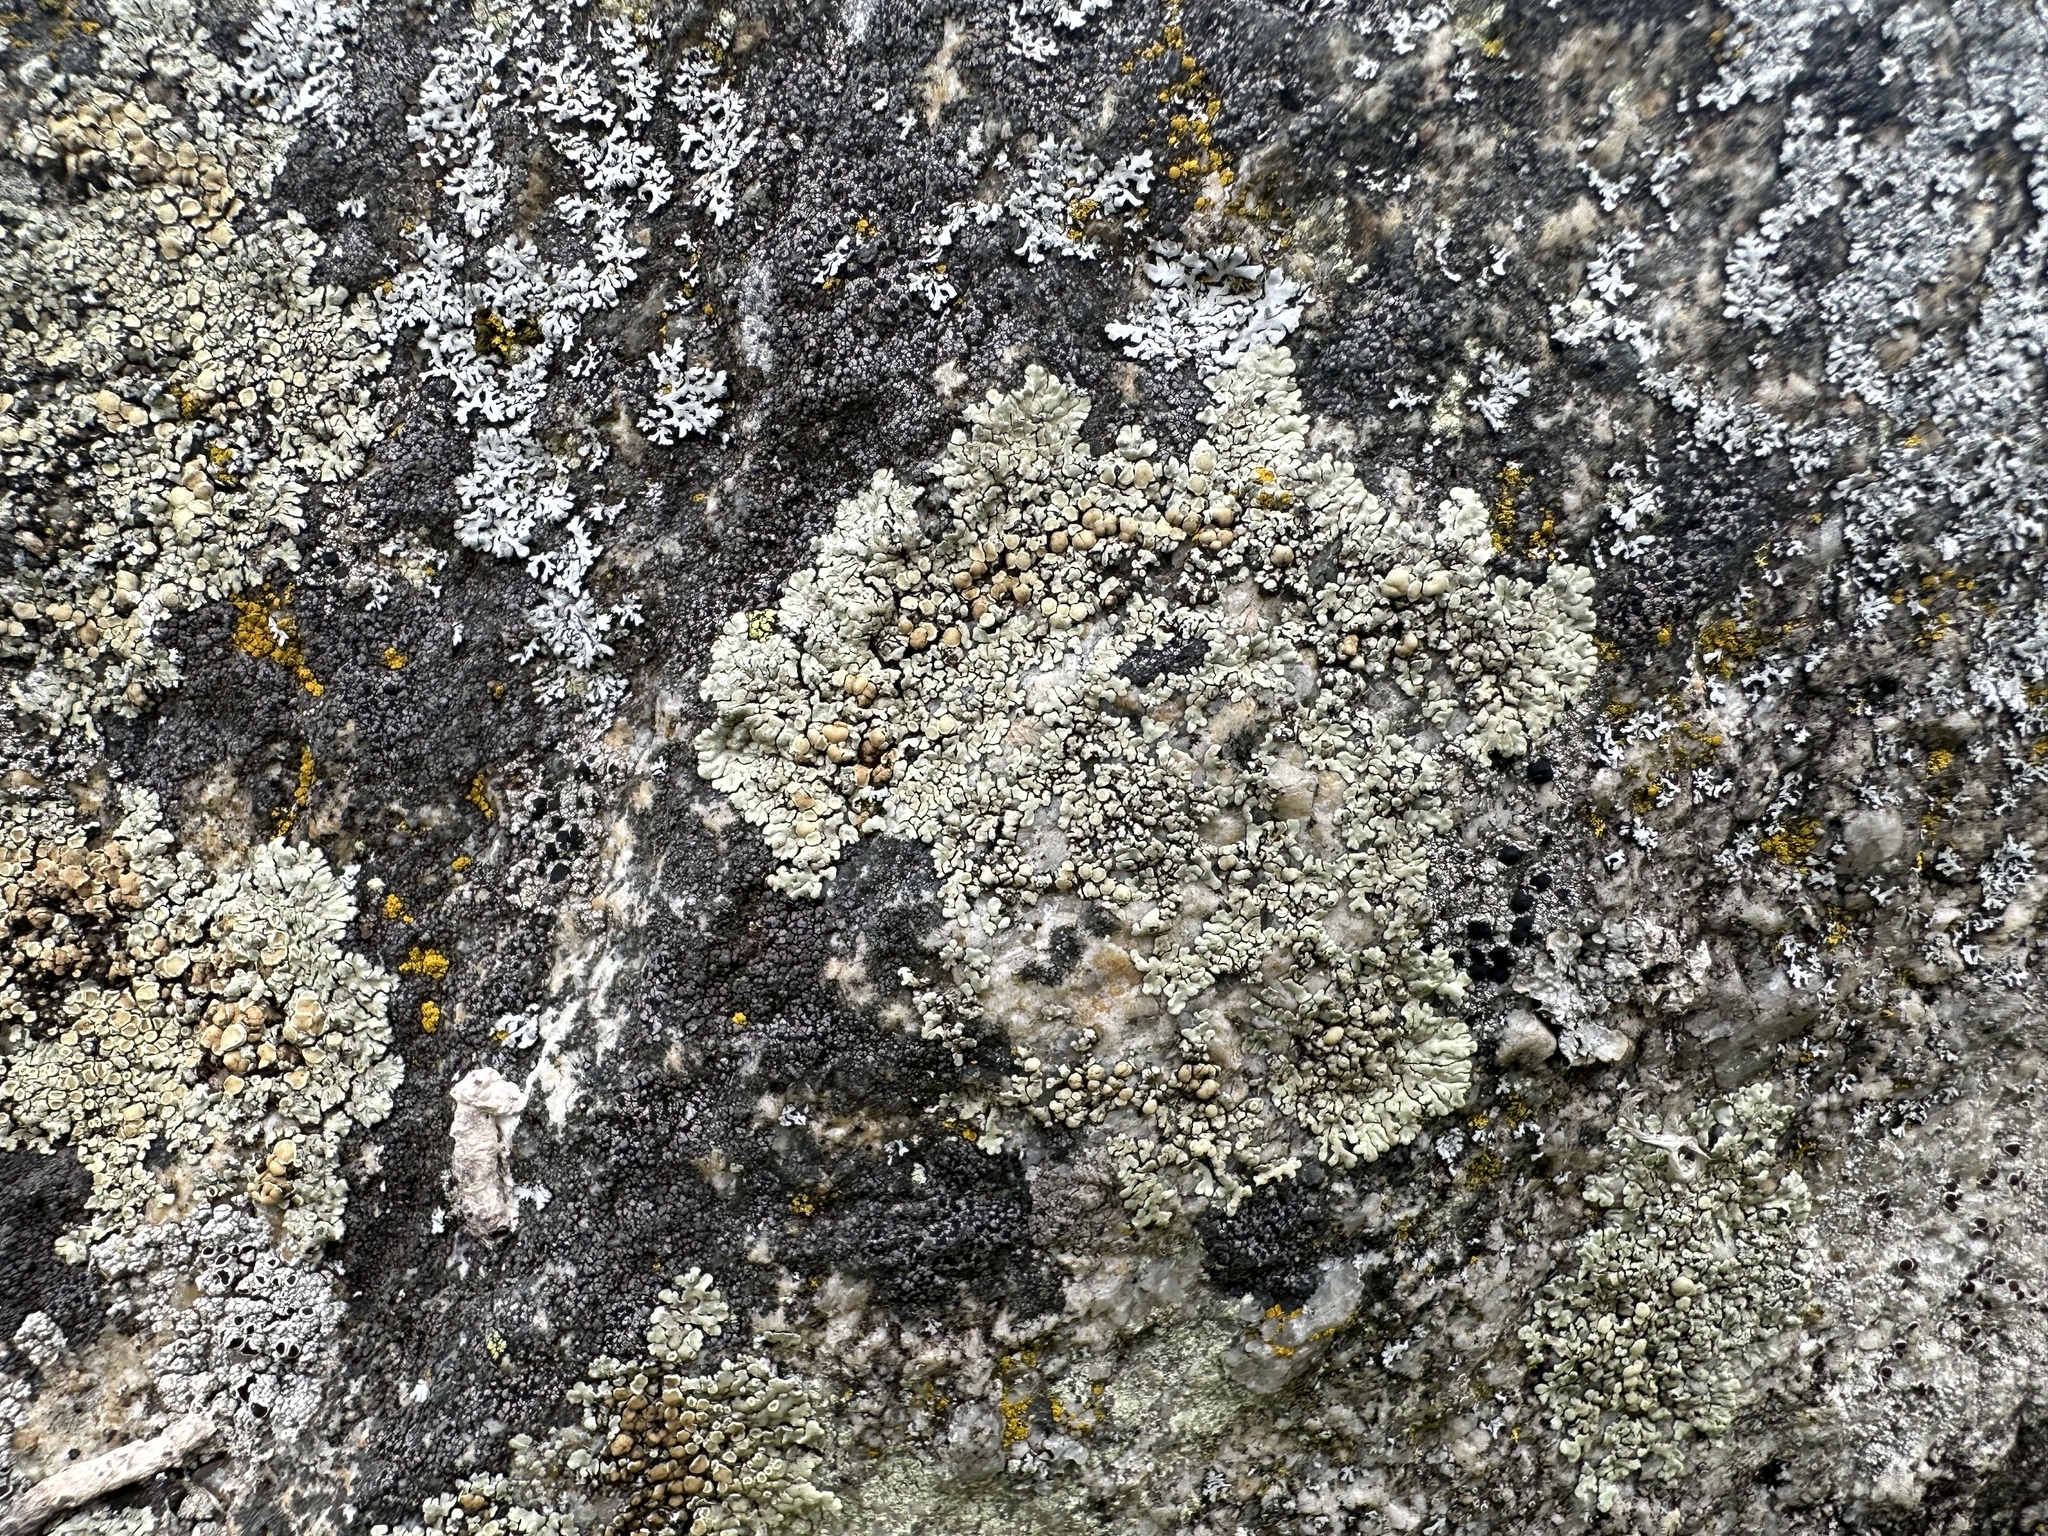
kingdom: Fungi
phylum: Ascomycota
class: Lecanoromycetes
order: Lecanorales
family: Lecanoraceae
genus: Protoparmeliopsis
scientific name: Protoparmeliopsis muralis
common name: Stonewall rim lichen
